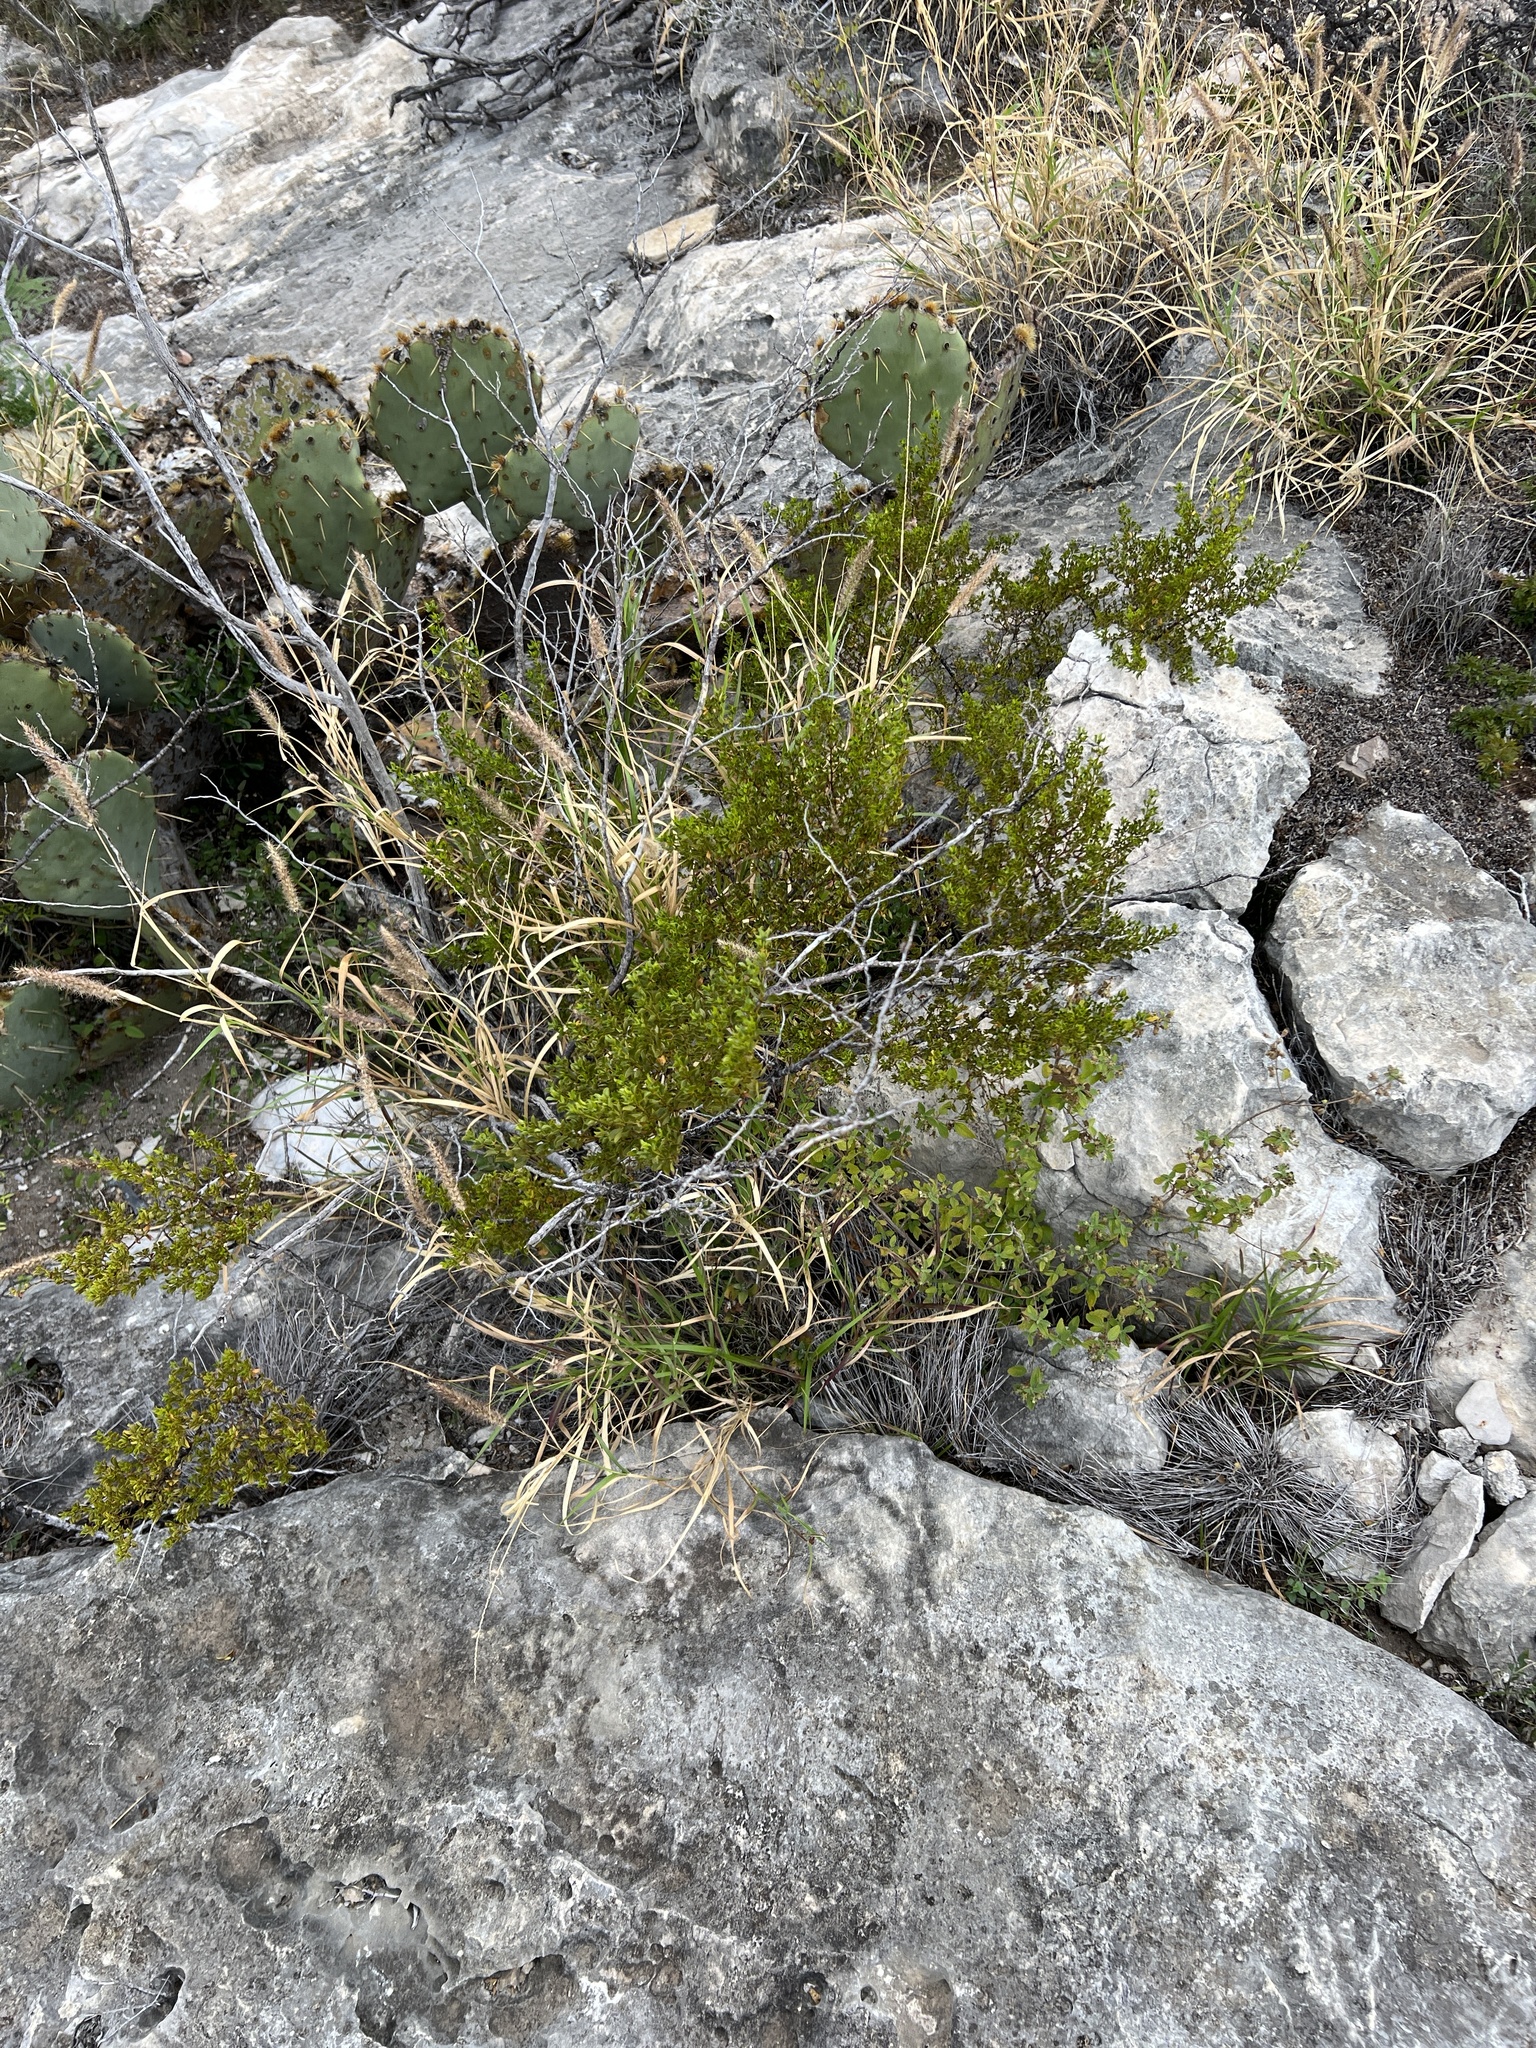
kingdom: Plantae
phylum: Tracheophyta
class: Magnoliopsida
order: Zygophyllales
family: Zygophyllaceae
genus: Larrea
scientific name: Larrea tridentata
